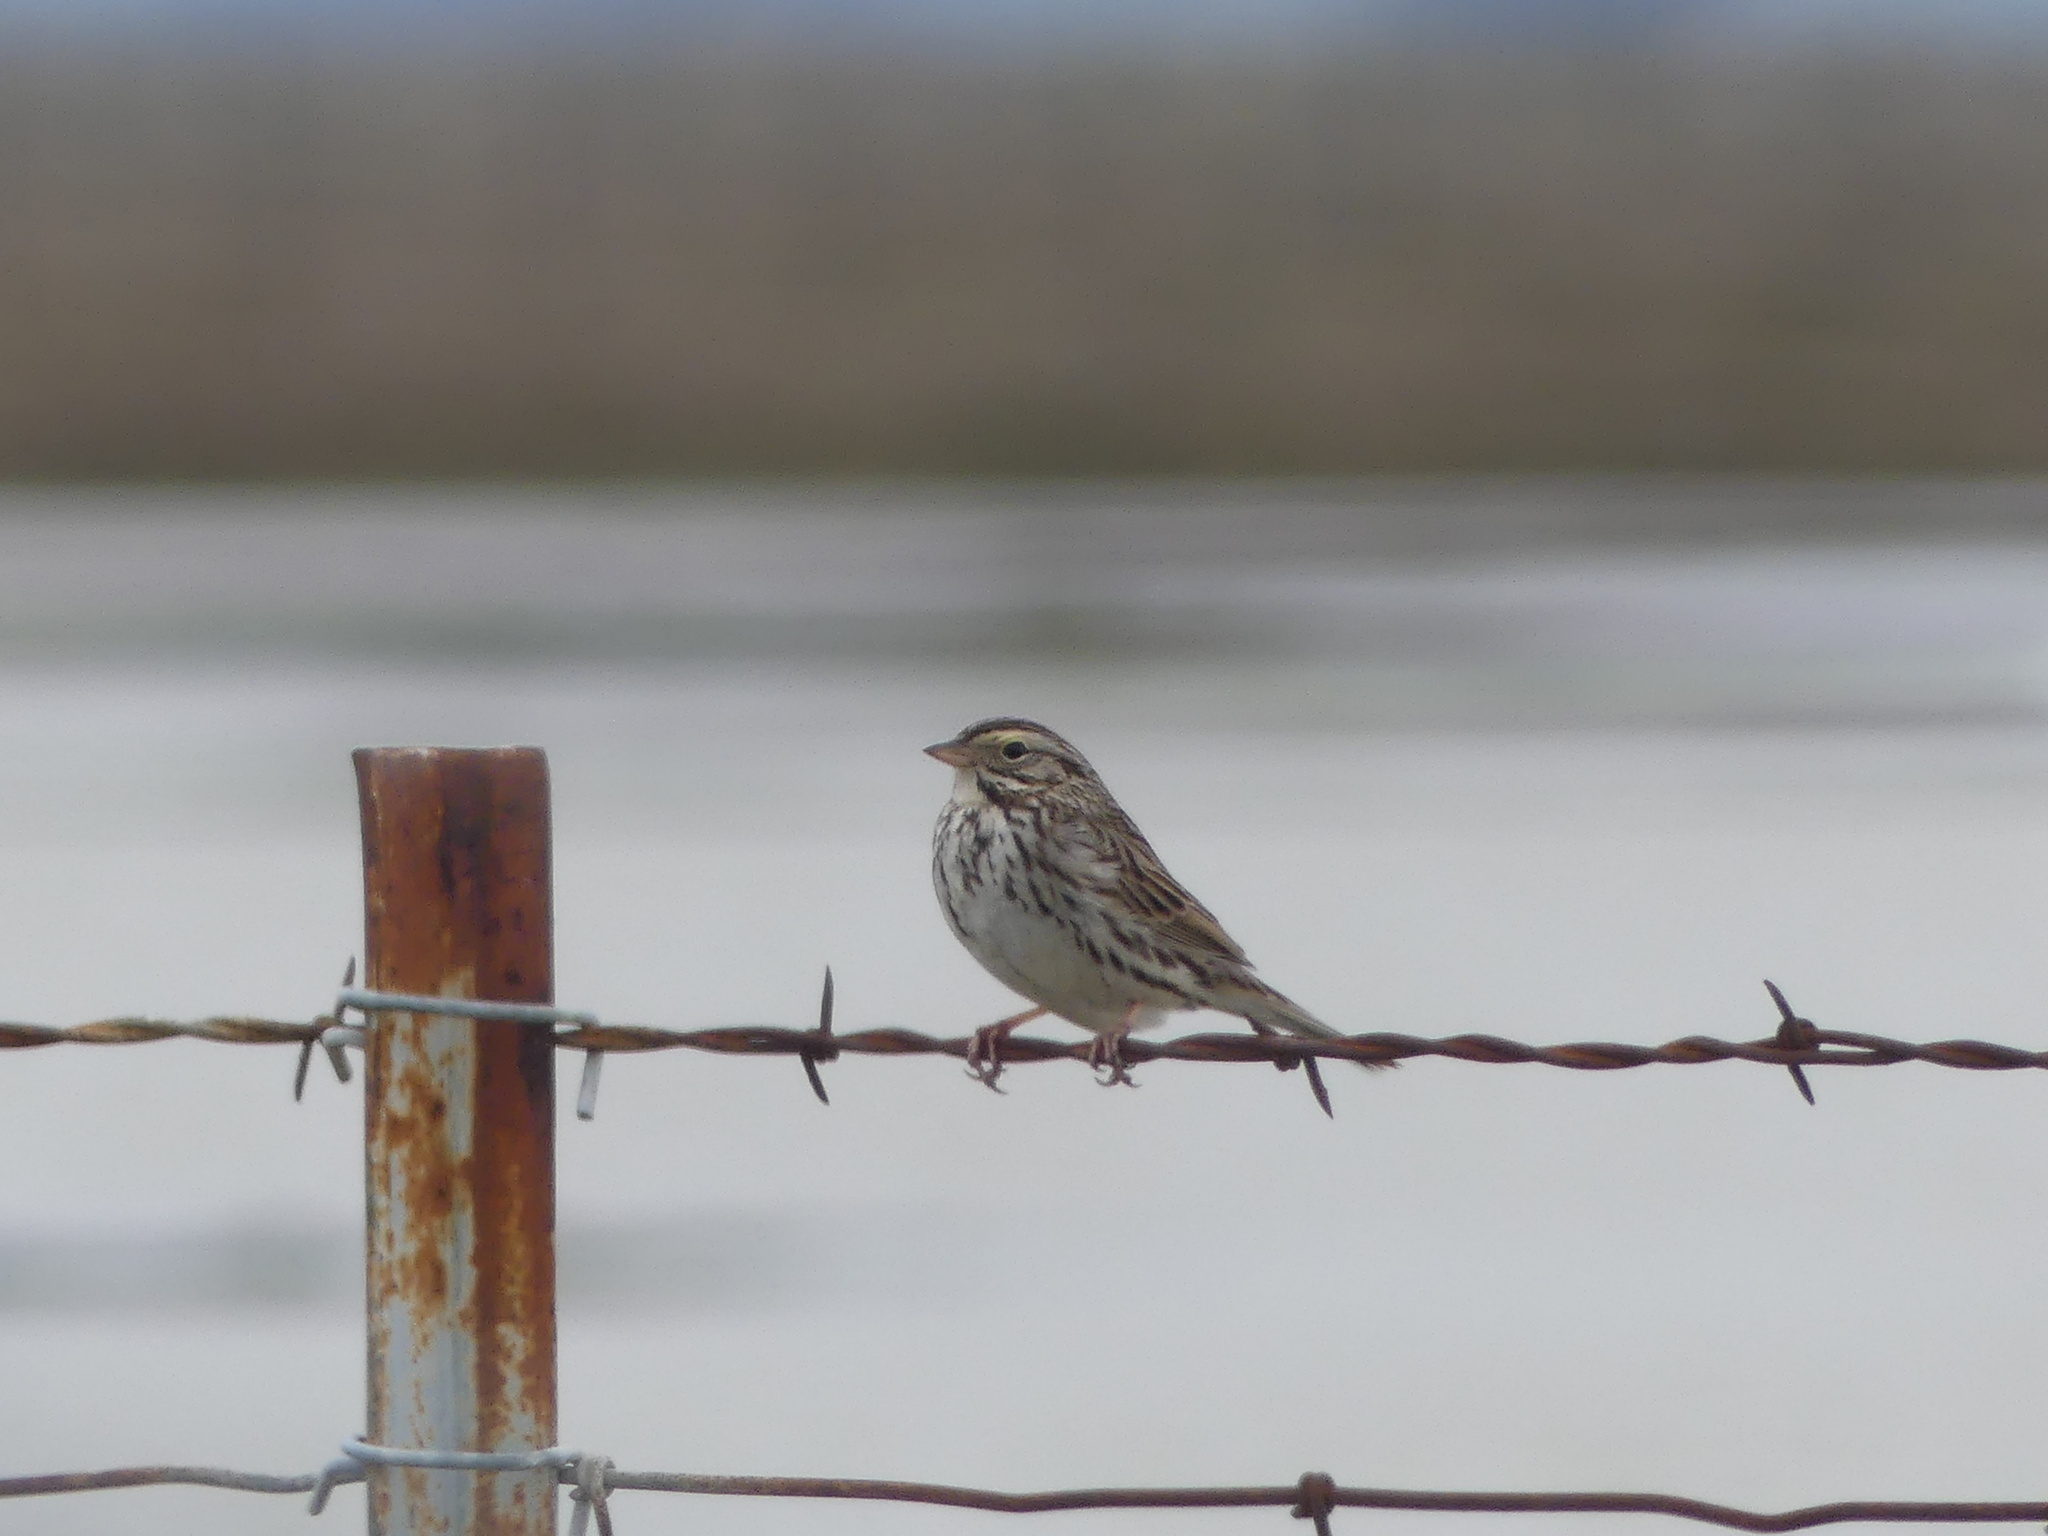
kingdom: Animalia
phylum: Chordata
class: Aves
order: Passeriformes
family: Passerellidae
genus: Passerculus
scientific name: Passerculus sandwichensis
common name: Savannah sparrow
